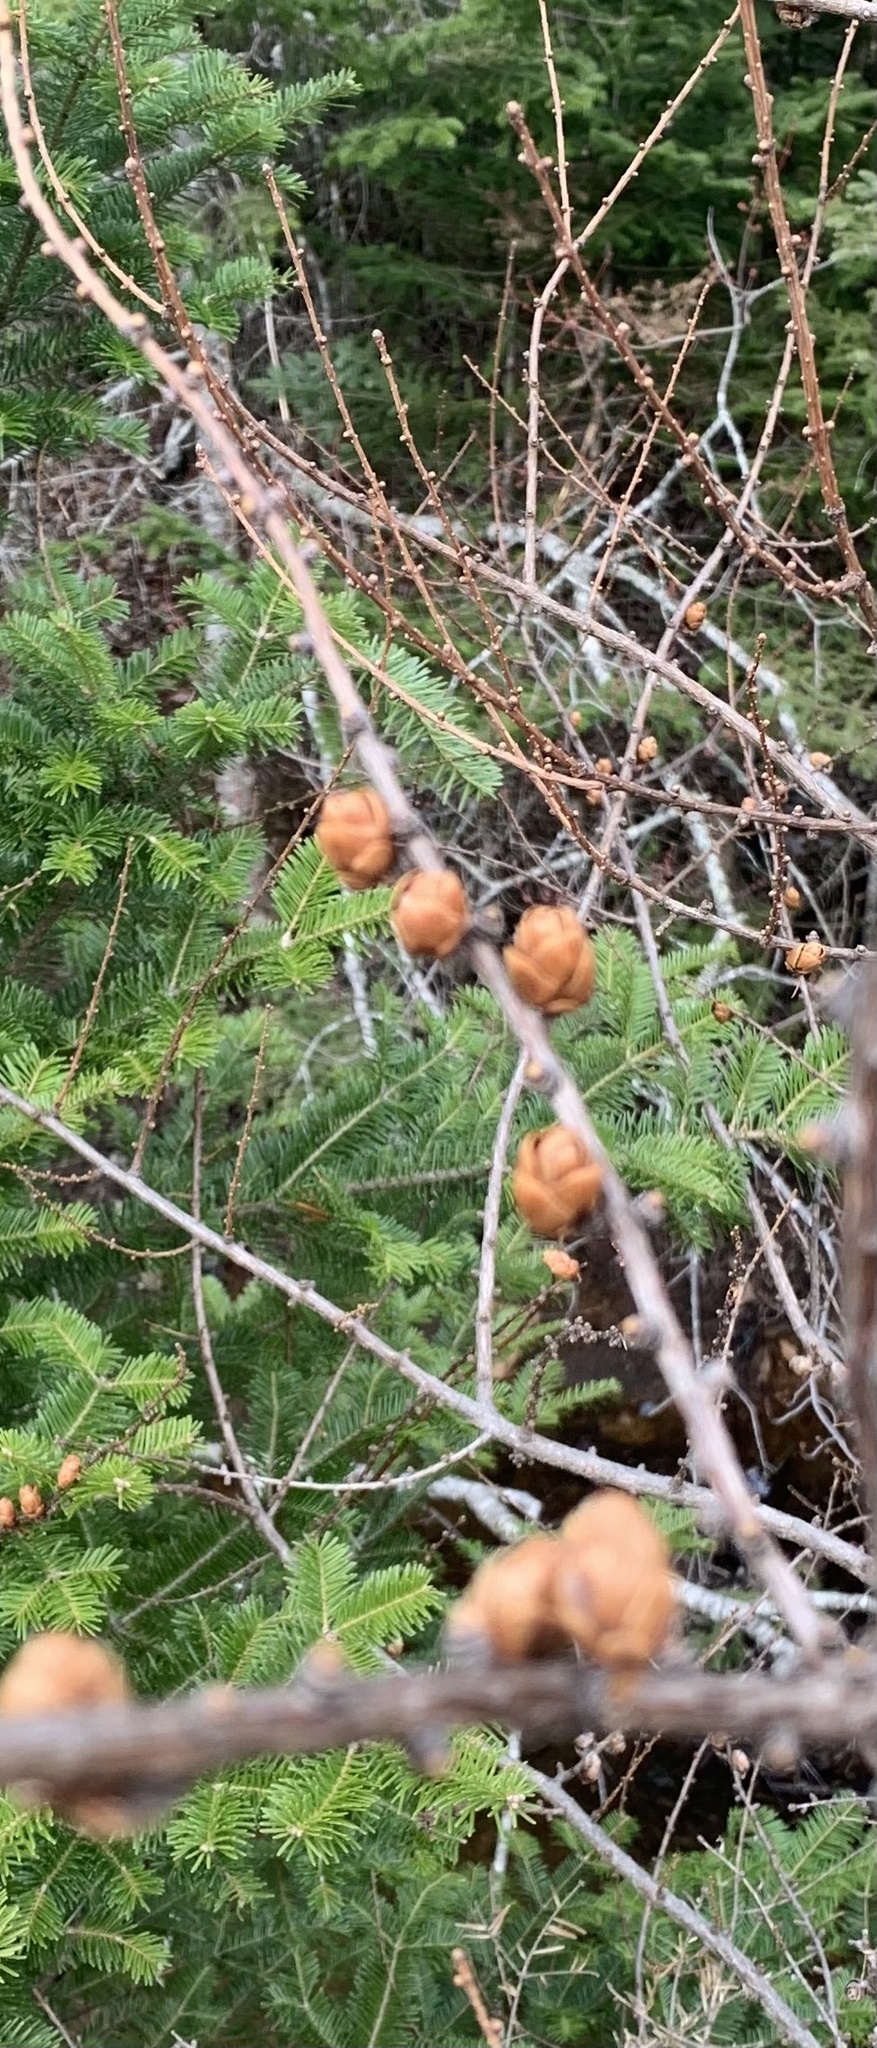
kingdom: Plantae
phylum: Tracheophyta
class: Pinopsida
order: Pinales
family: Pinaceae
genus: Larix
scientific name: Larix laricina
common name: American larch
